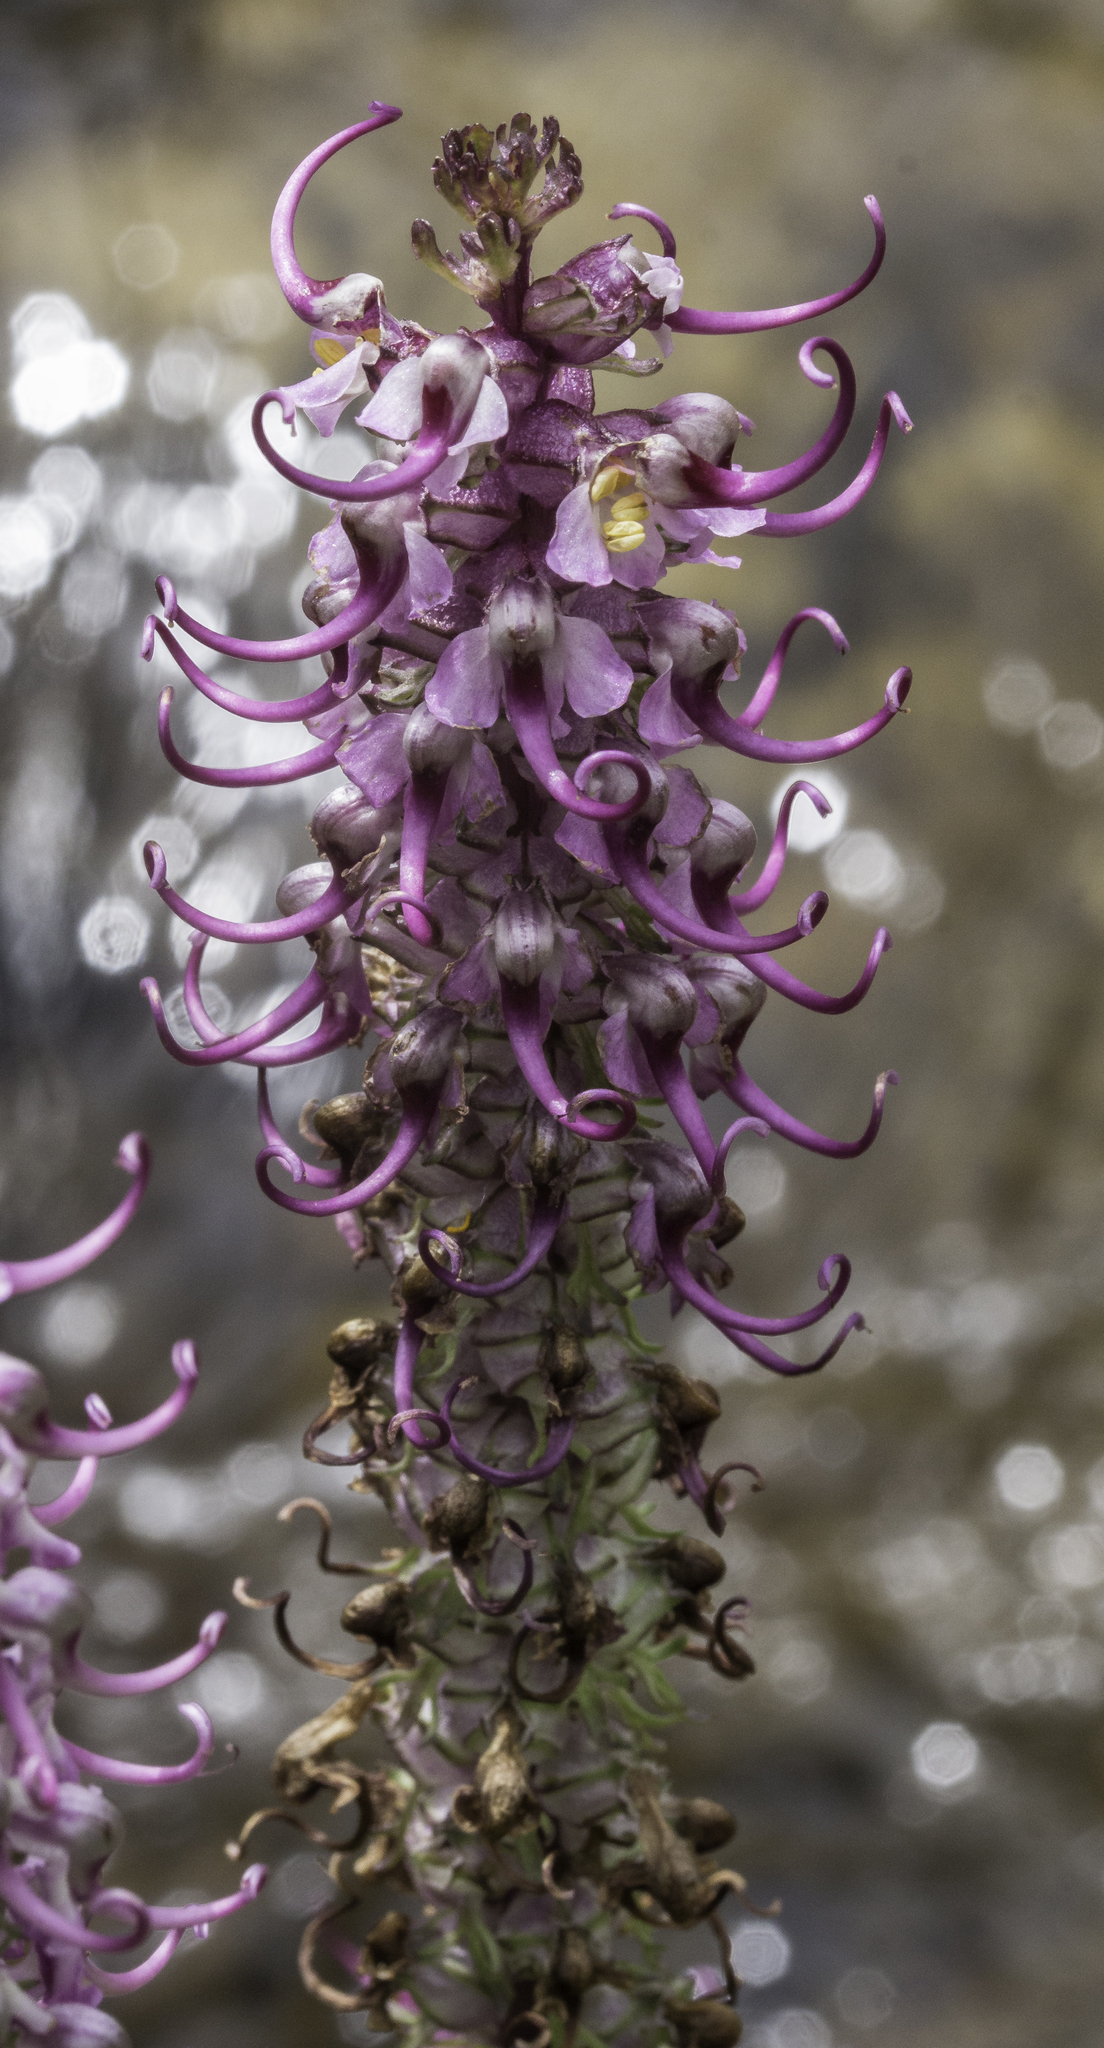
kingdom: Plantae
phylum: Tracheophyta
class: Magnoliopsida
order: Lamiales
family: Orobanchaceae
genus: Pedicularis
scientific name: Pedicularis groenlandica
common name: Elephant's-head
